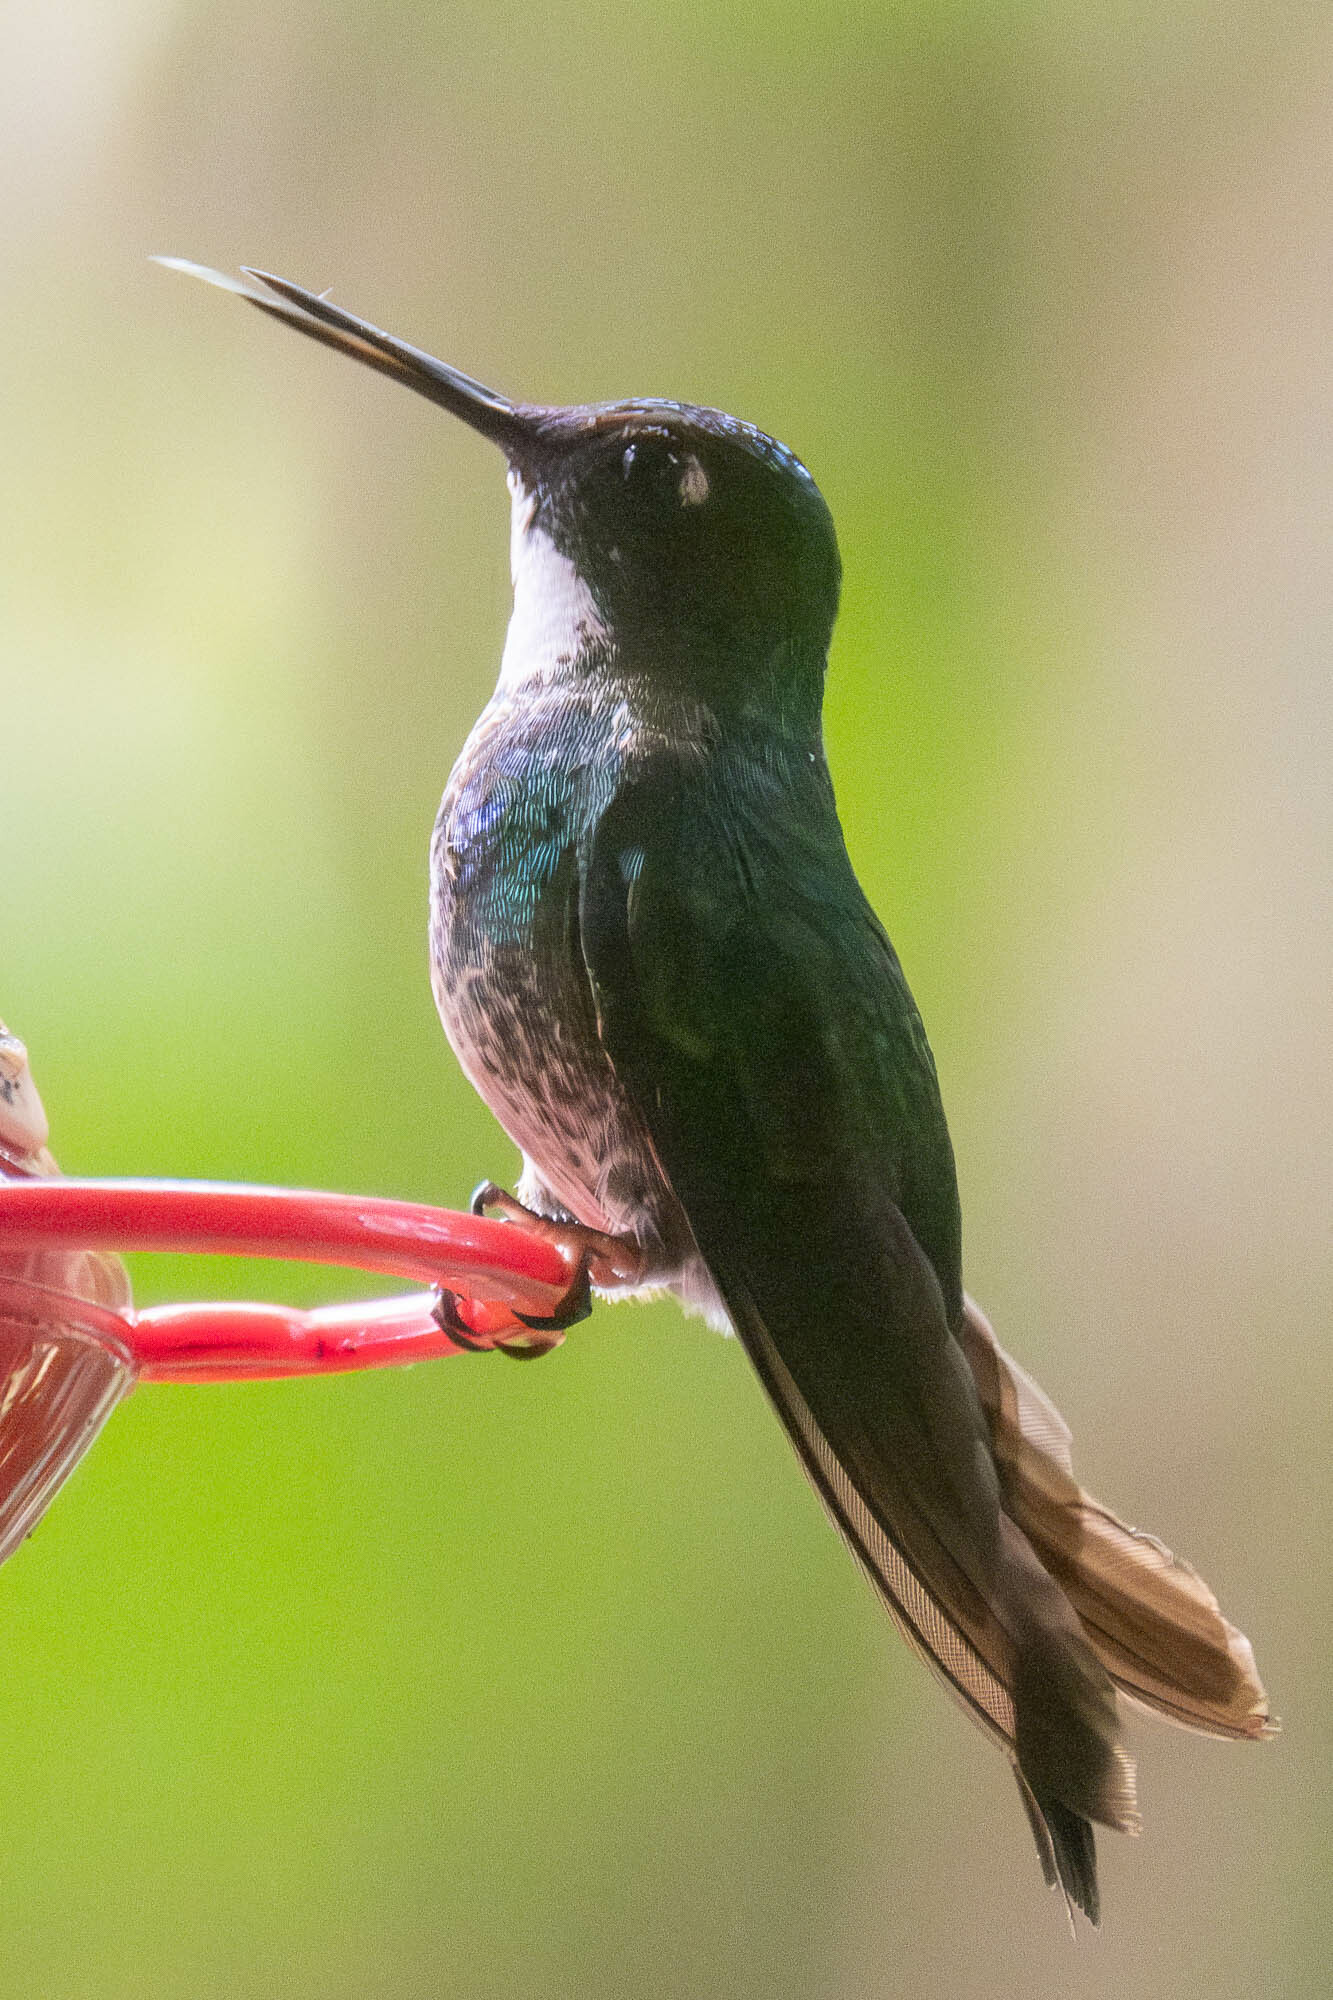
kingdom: Animalia
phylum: Chordata
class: Aves
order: Apodiformes
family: Trochilidae
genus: Heliangelus
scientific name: Heliangelus exortis
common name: Tourmaline sunangel
